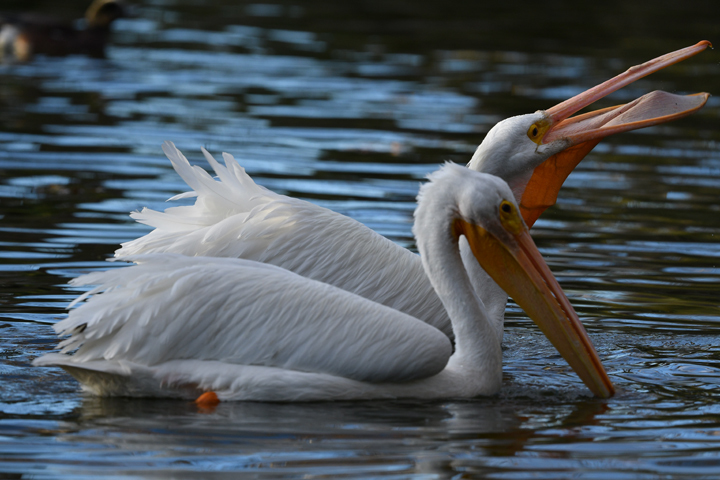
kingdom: Animalia
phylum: Chordata
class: Aves
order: Pelecaniformes
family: Pelecanidae
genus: Pelecanus
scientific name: Pelecanus erythrorhynchos
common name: American white pelican
